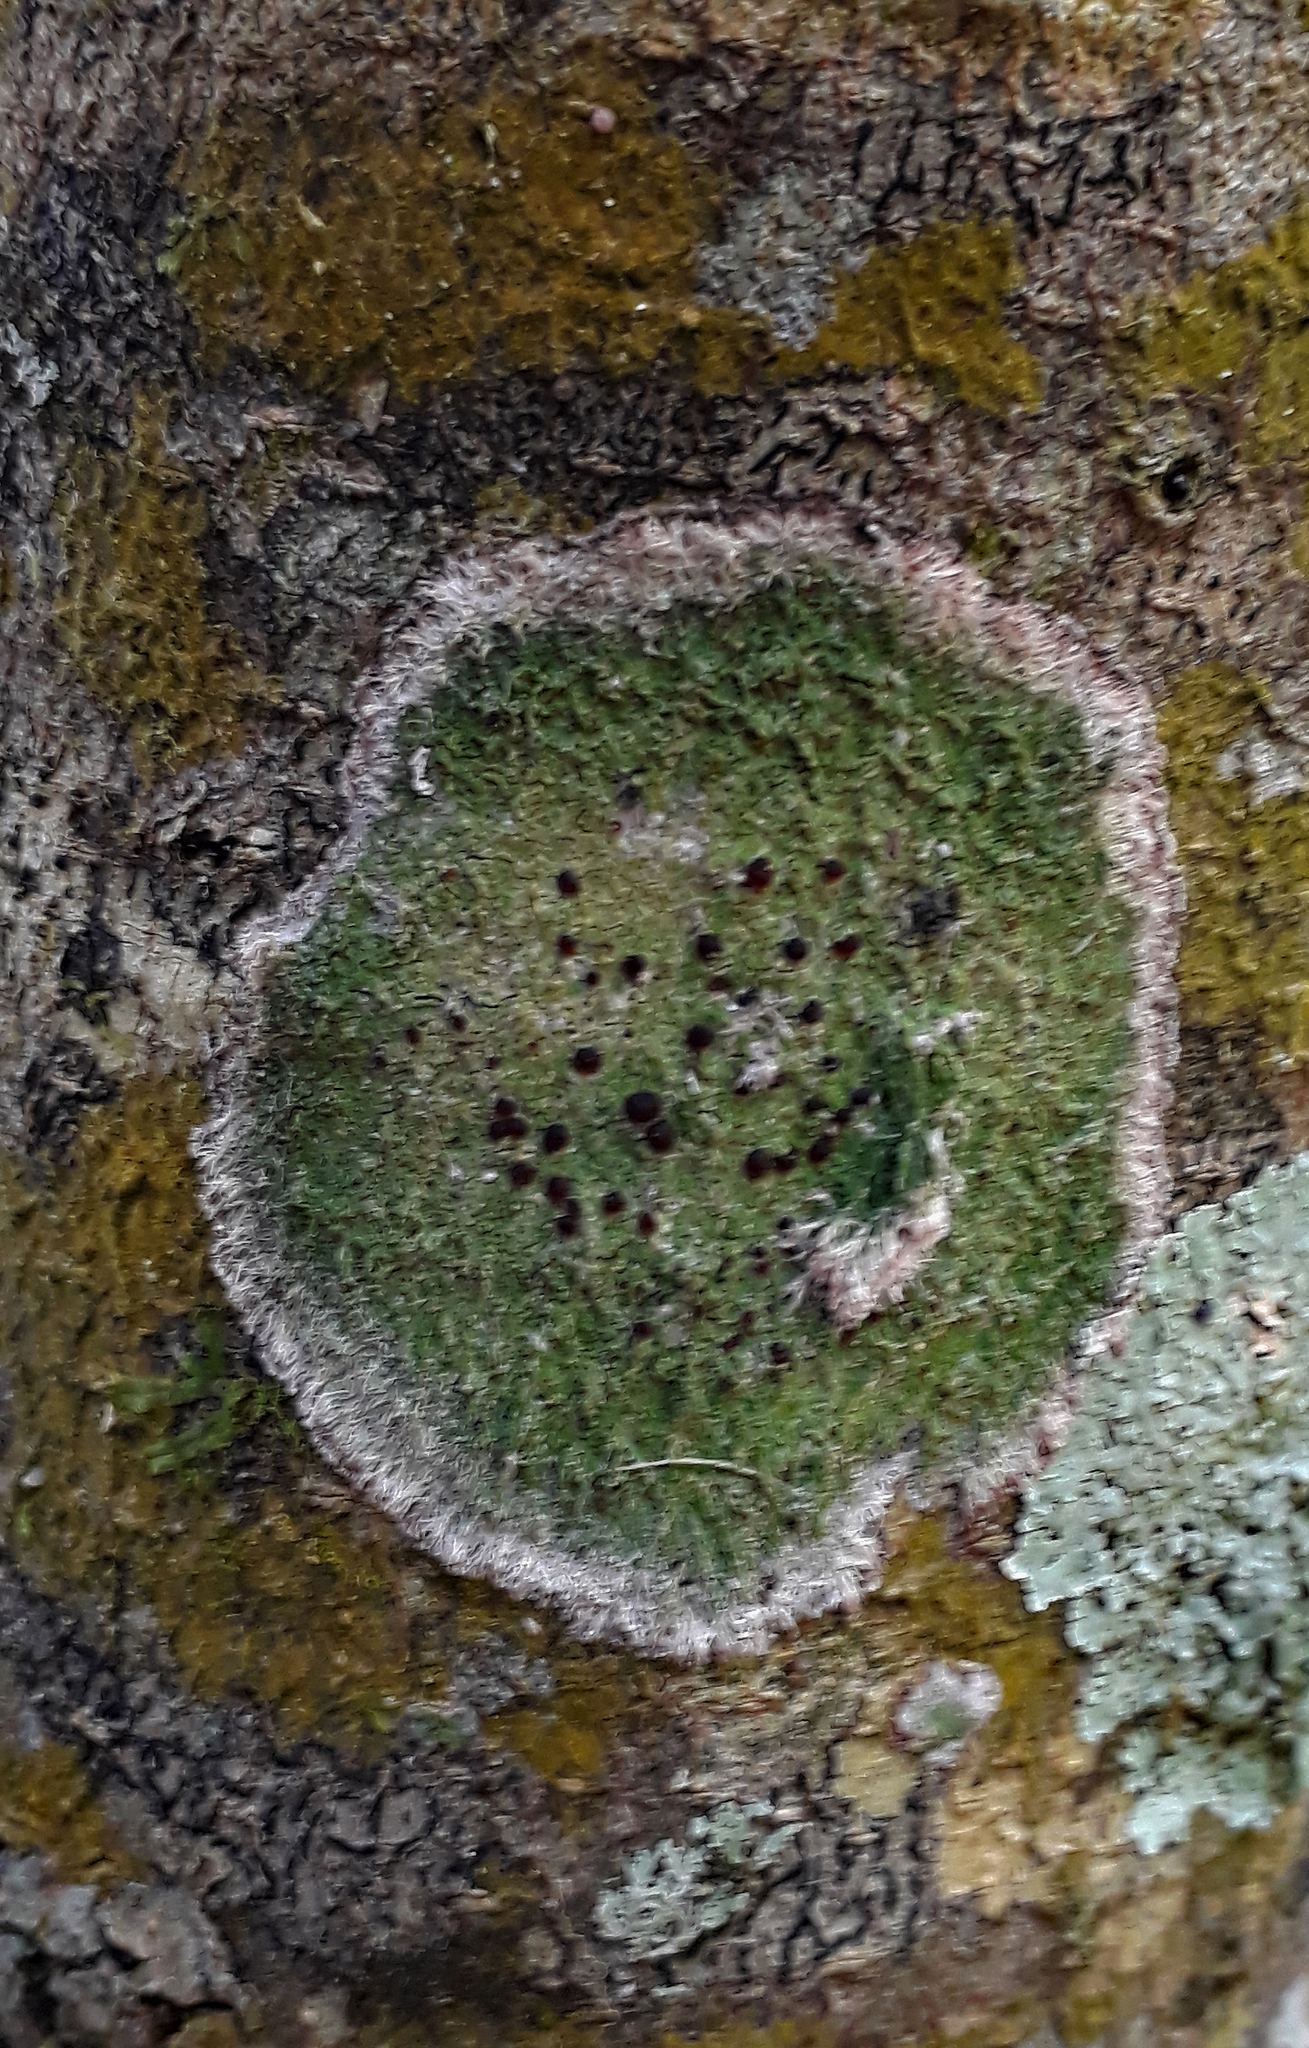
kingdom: Fungi
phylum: Ascomycota
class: Lecanoromycetes
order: Lecanorales
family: Ramalinaceae
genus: Phyllopsora
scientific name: Phyllopsora corallina
